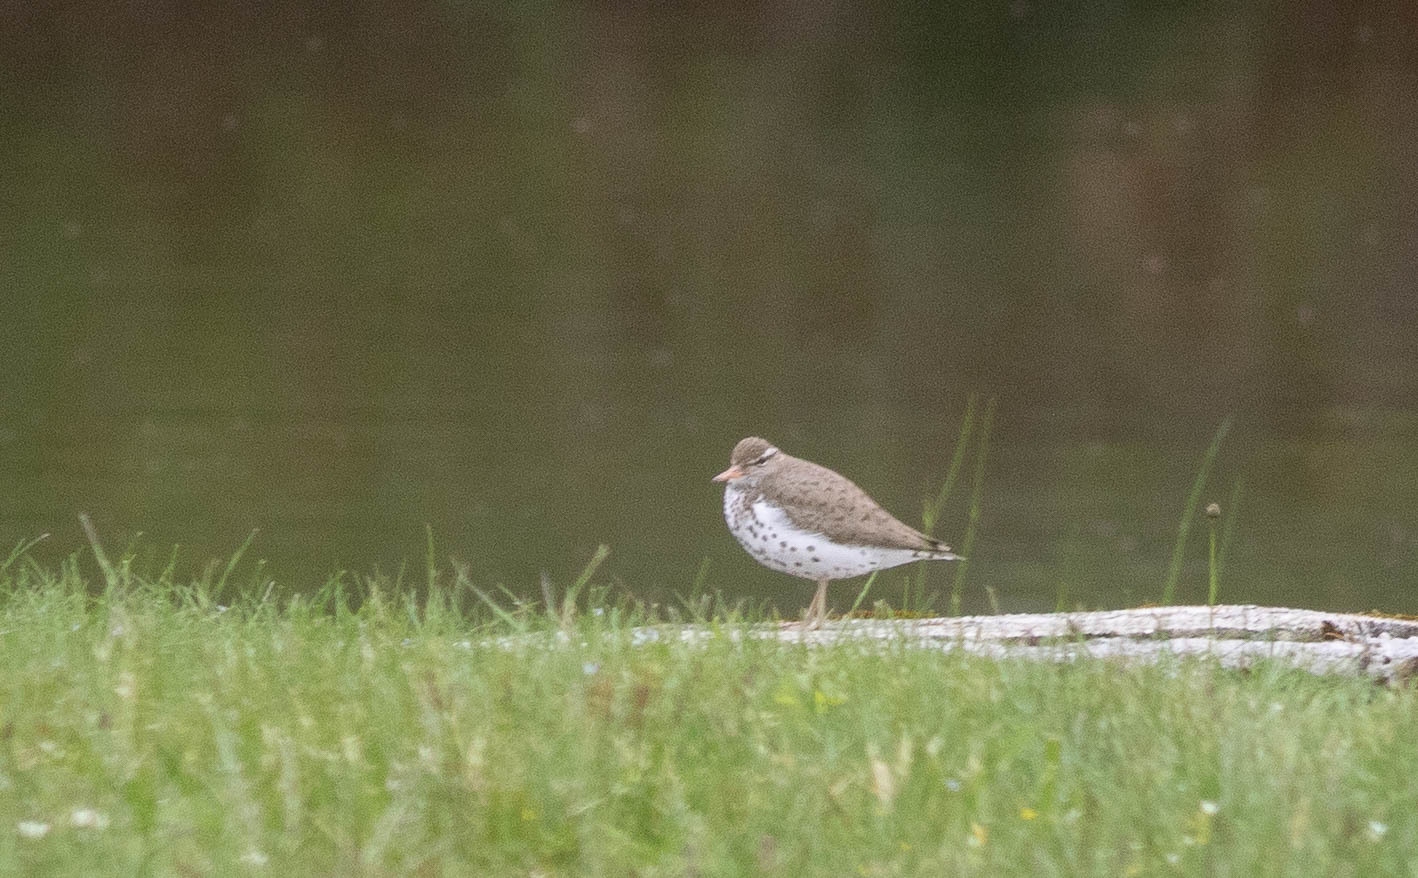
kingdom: Animalia
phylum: Chordata
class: Aves
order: Charadriiformes
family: Scolopacidae
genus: Actitis
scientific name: Actitis macularius
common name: Spotted sandpiper
